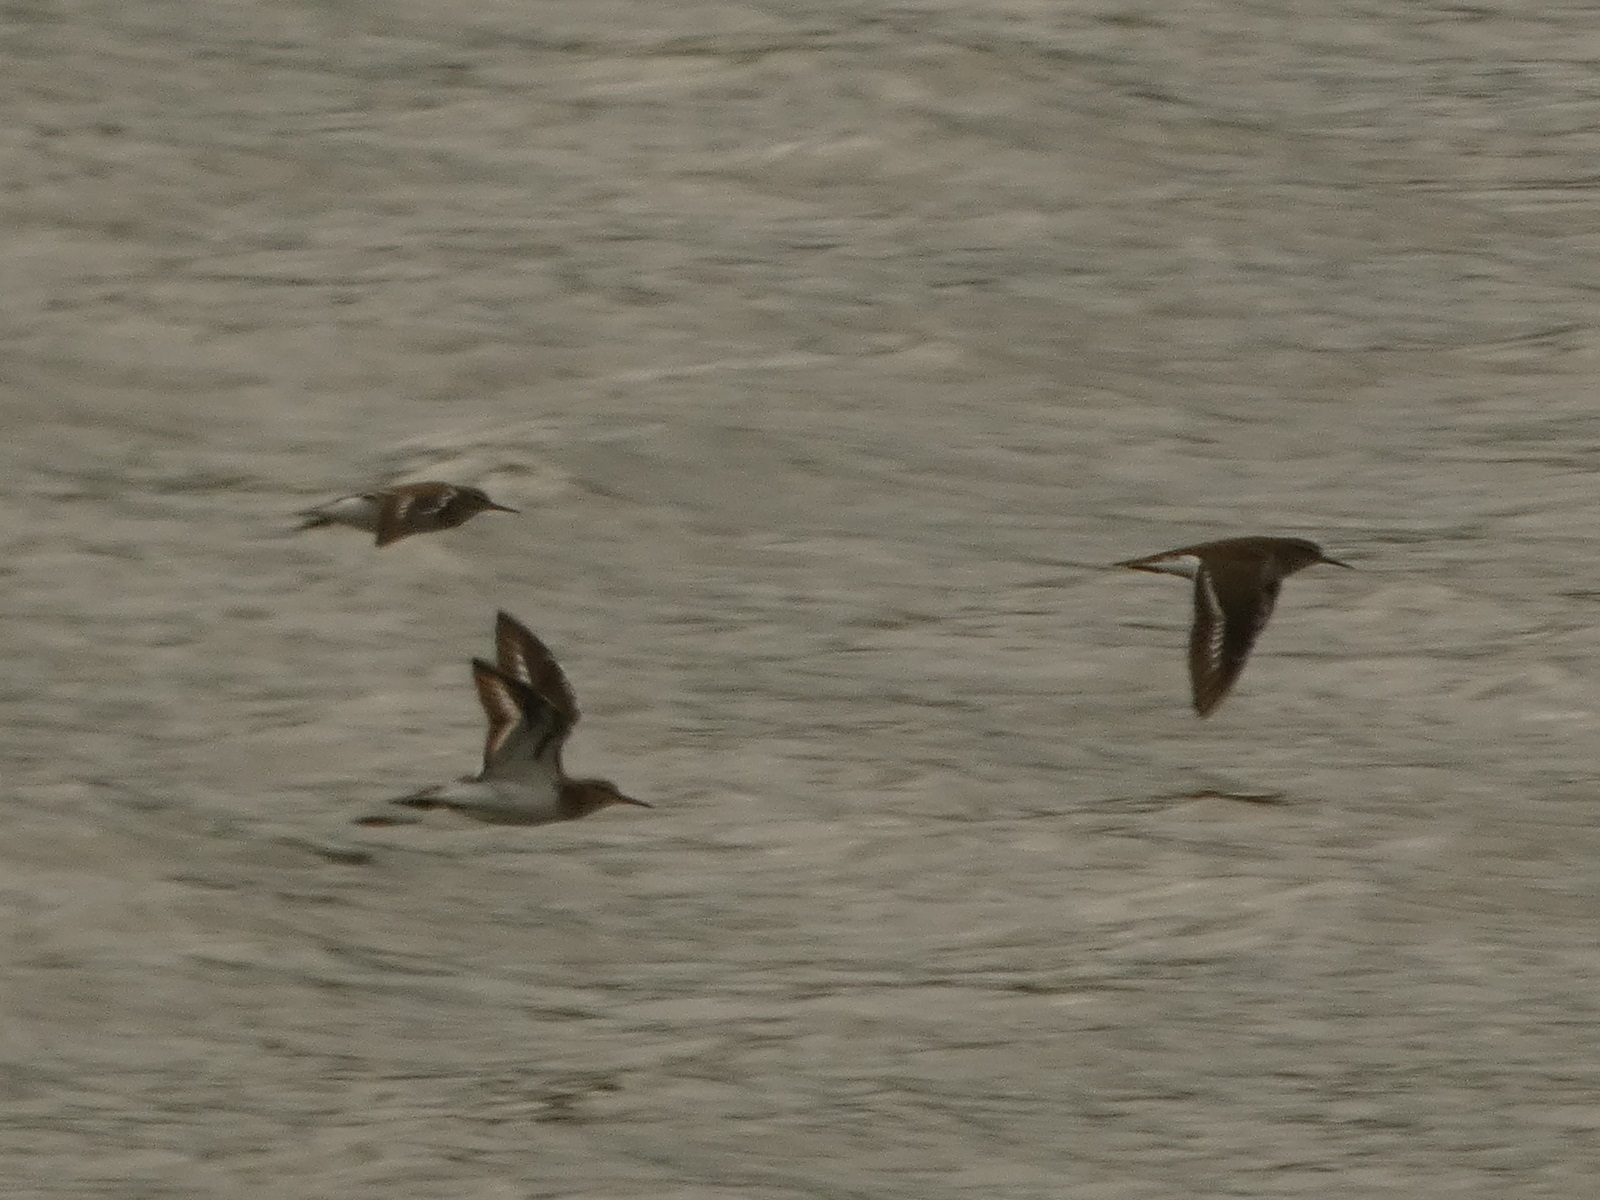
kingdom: Animalia
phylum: Chordata
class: Aves
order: Charadriiformes
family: Scolopacidae
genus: Actitis
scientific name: Actitis hypoleucos
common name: Common sandpiper
